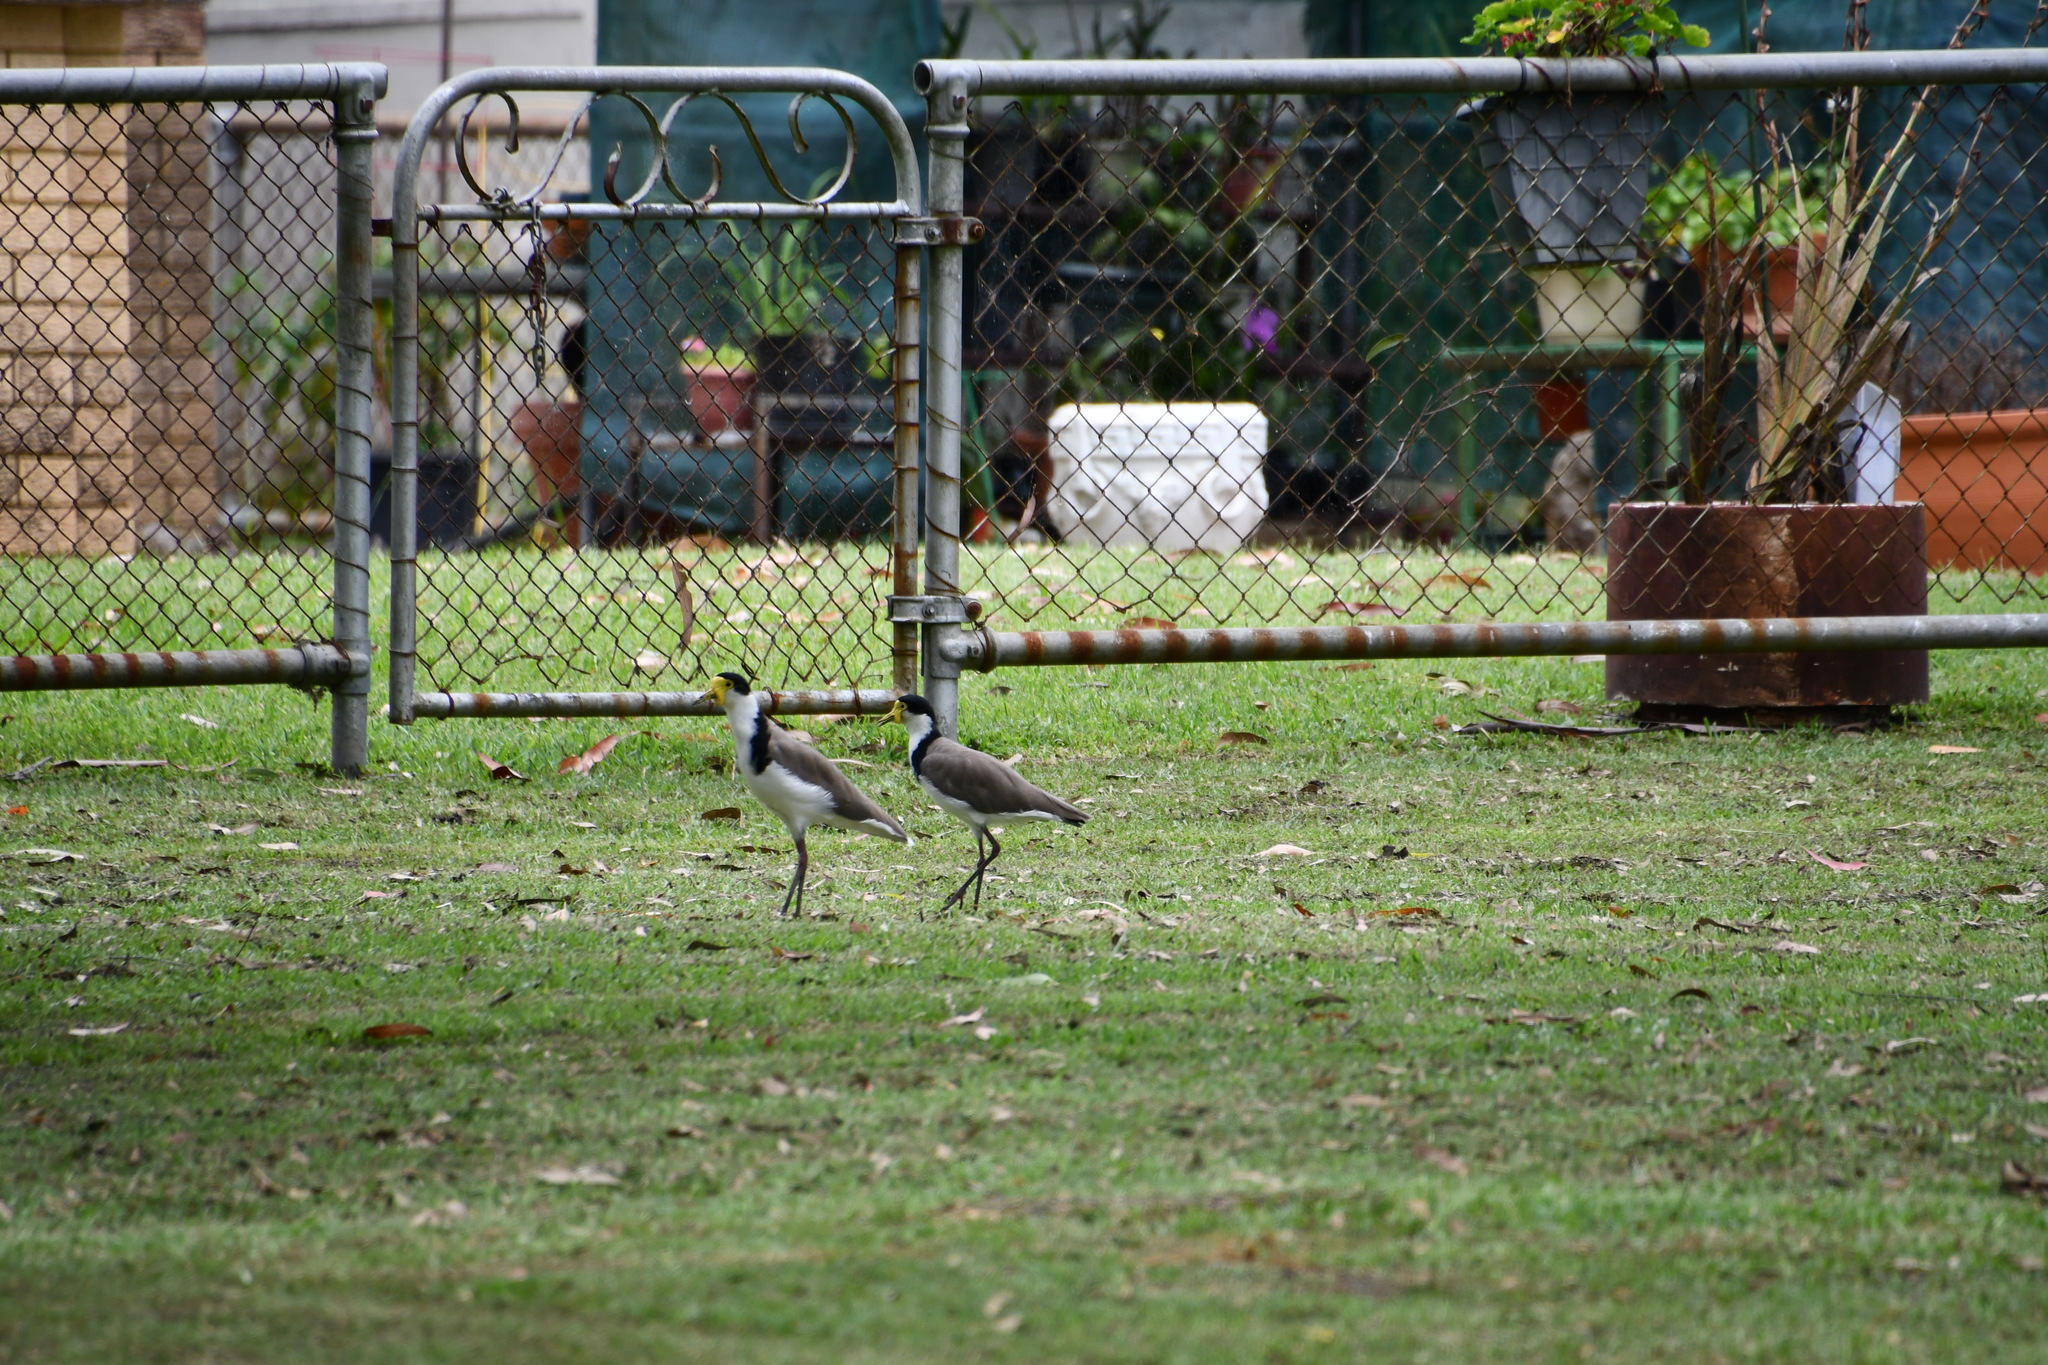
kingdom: Animalia
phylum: Chordata
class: Aves
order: Charadriiformes
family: Charadriidae
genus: Vanellus
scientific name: Vanellus miles
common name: Masked lapwing
